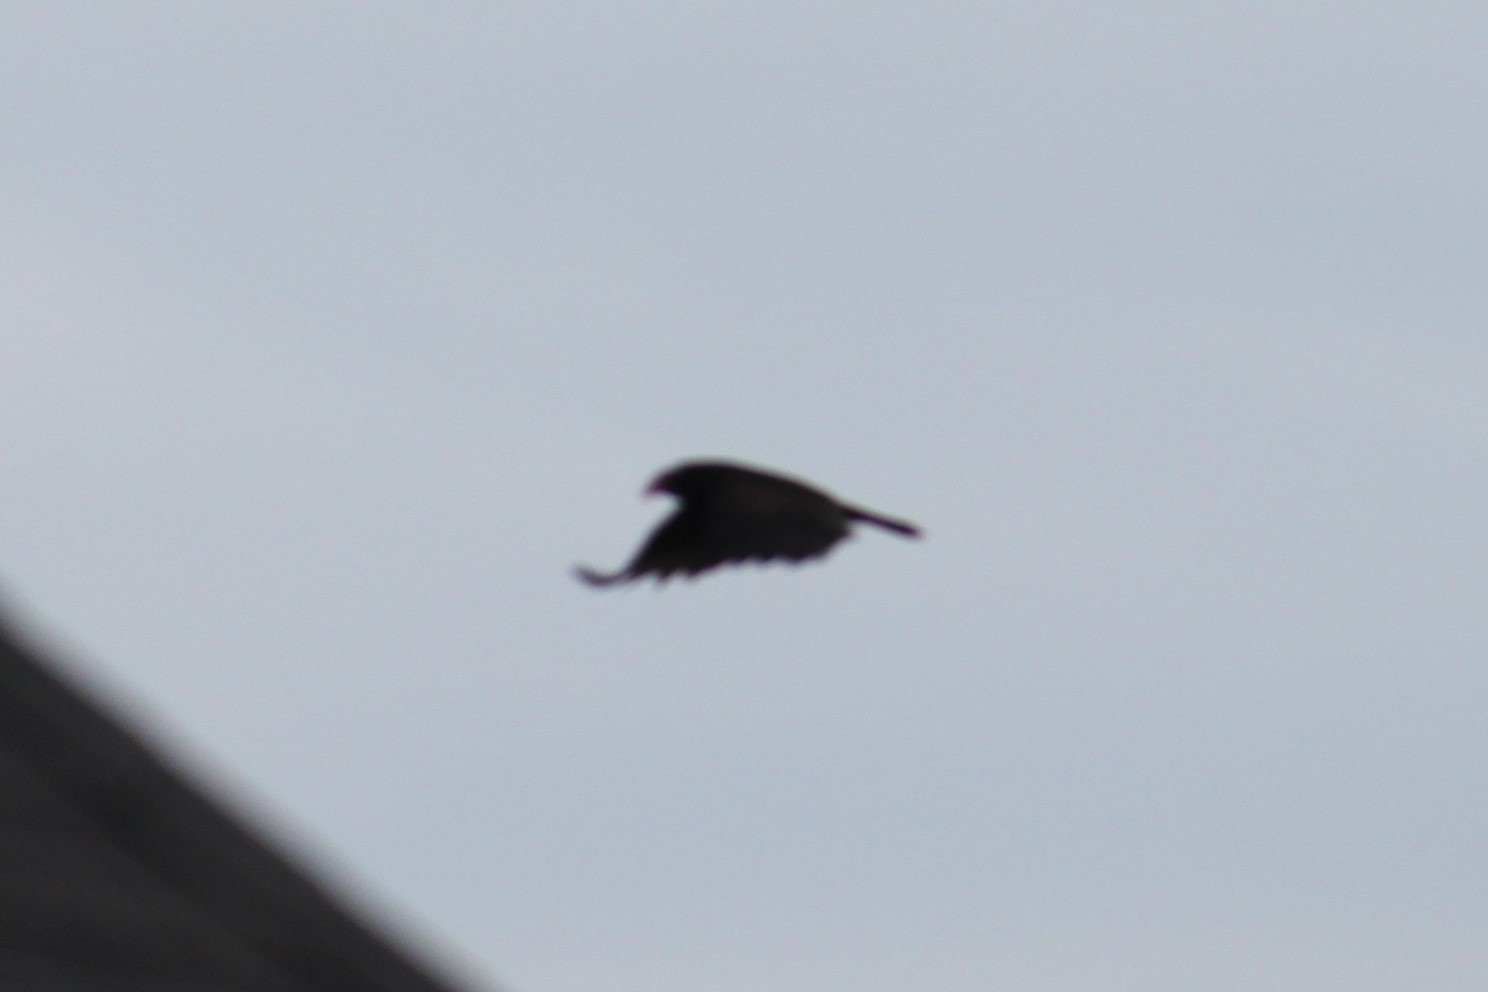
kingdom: Animalia
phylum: Chordata
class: Aves
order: Accipitriformes
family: Cathartidae
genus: Cathartes
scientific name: Cathartes aura
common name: Turkey vulture
